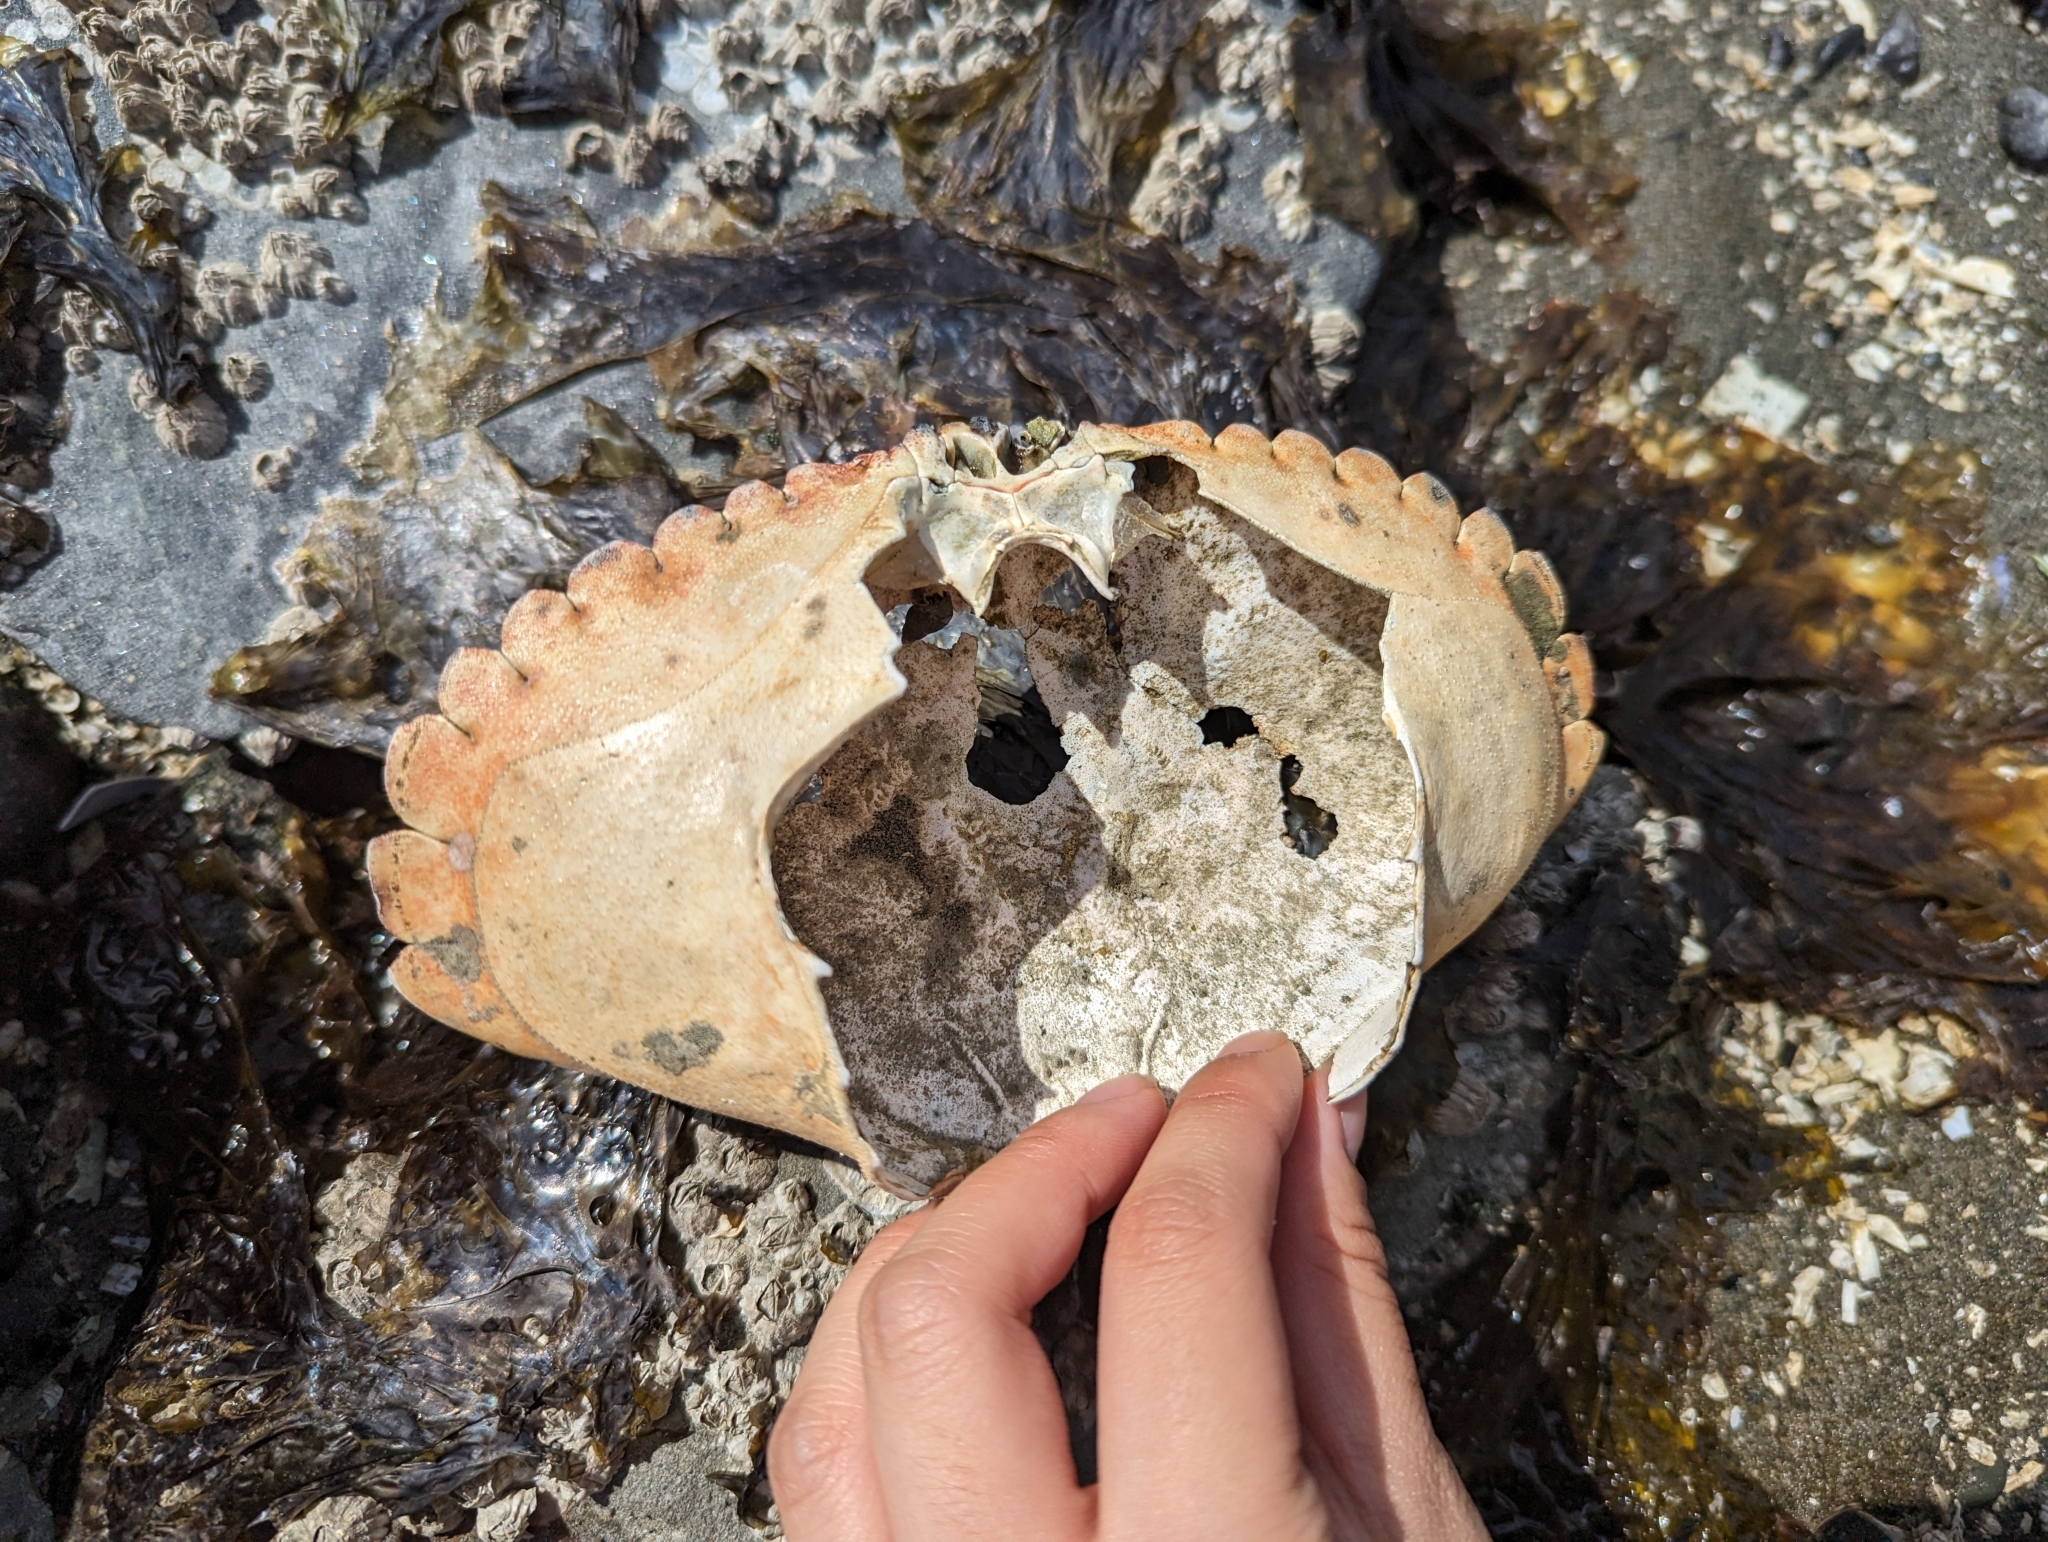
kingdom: Animalia
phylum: Arthropoda
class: Malacostraca
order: Decapoda
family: Cancridae
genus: Cancer
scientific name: Cancer productus
